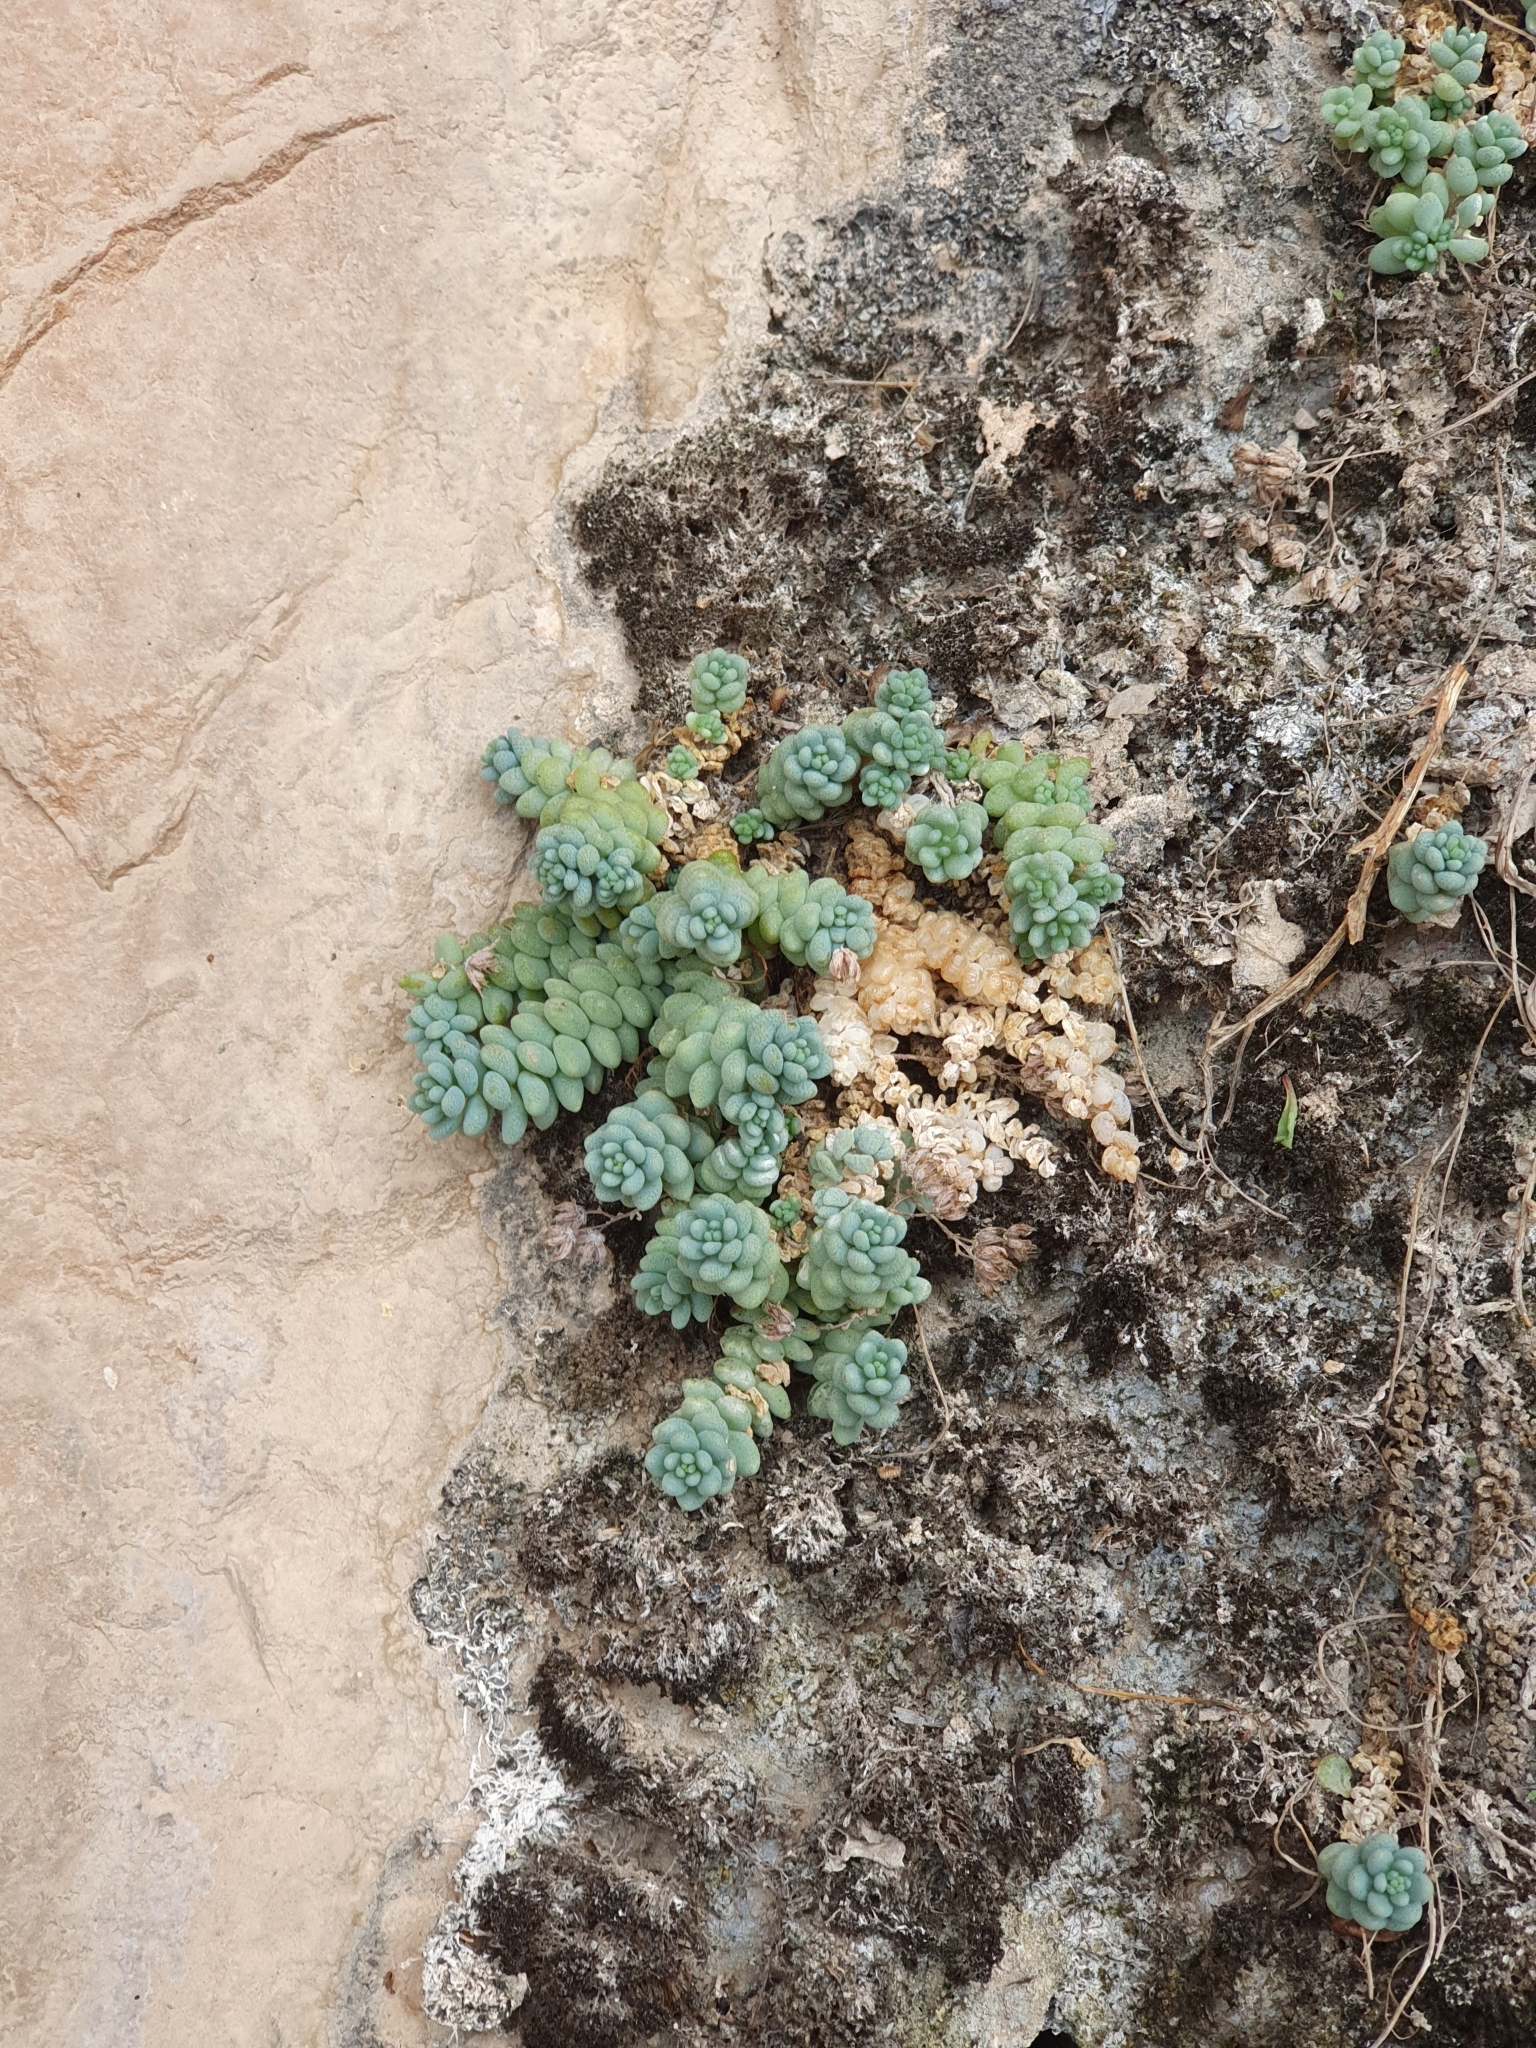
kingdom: Plantae
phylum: Tracheophyta
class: Magnoliopsida
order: Saxifragales
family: Crassulaceae
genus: Sedum
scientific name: Sedum dasyphyllum
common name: Thick-leaf stonecrop
